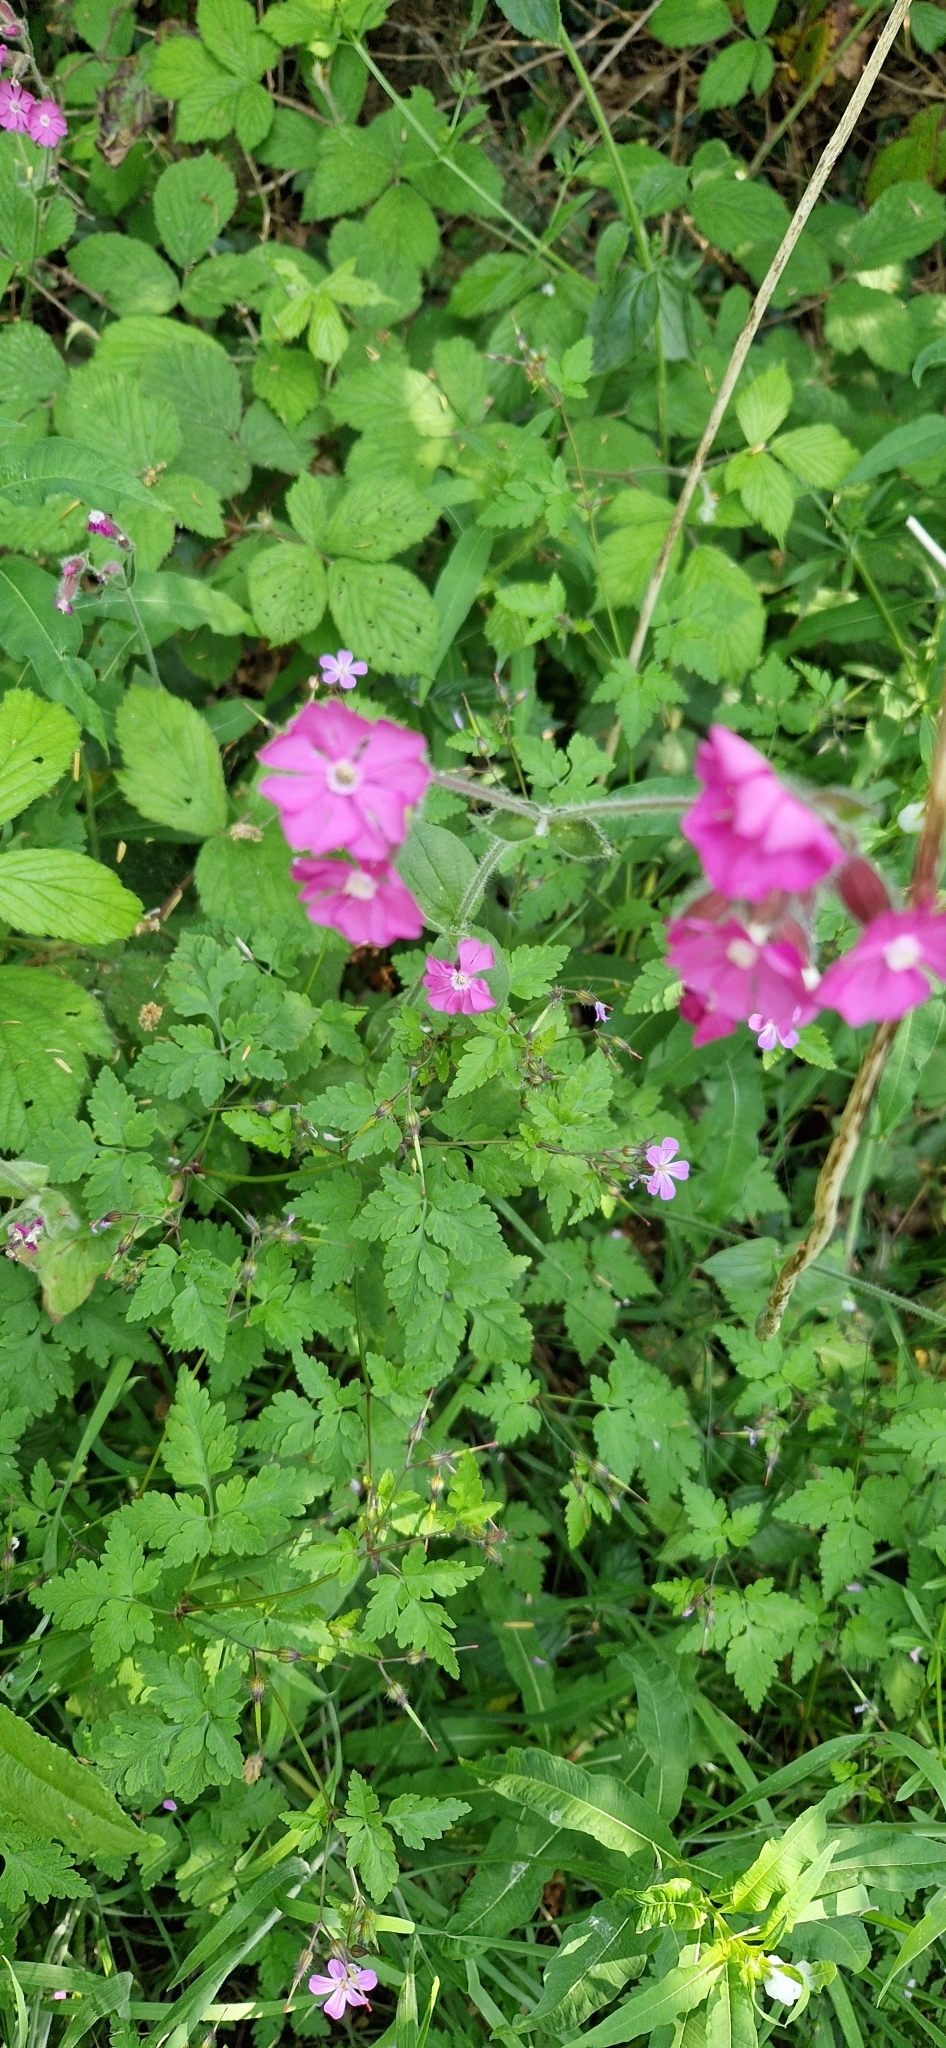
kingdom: Plantae
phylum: Tracheophyta
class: Magnoliopsida
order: Caryophyllales
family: Caryophyllaceae
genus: Silene
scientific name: Silene dioica
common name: Red campion
